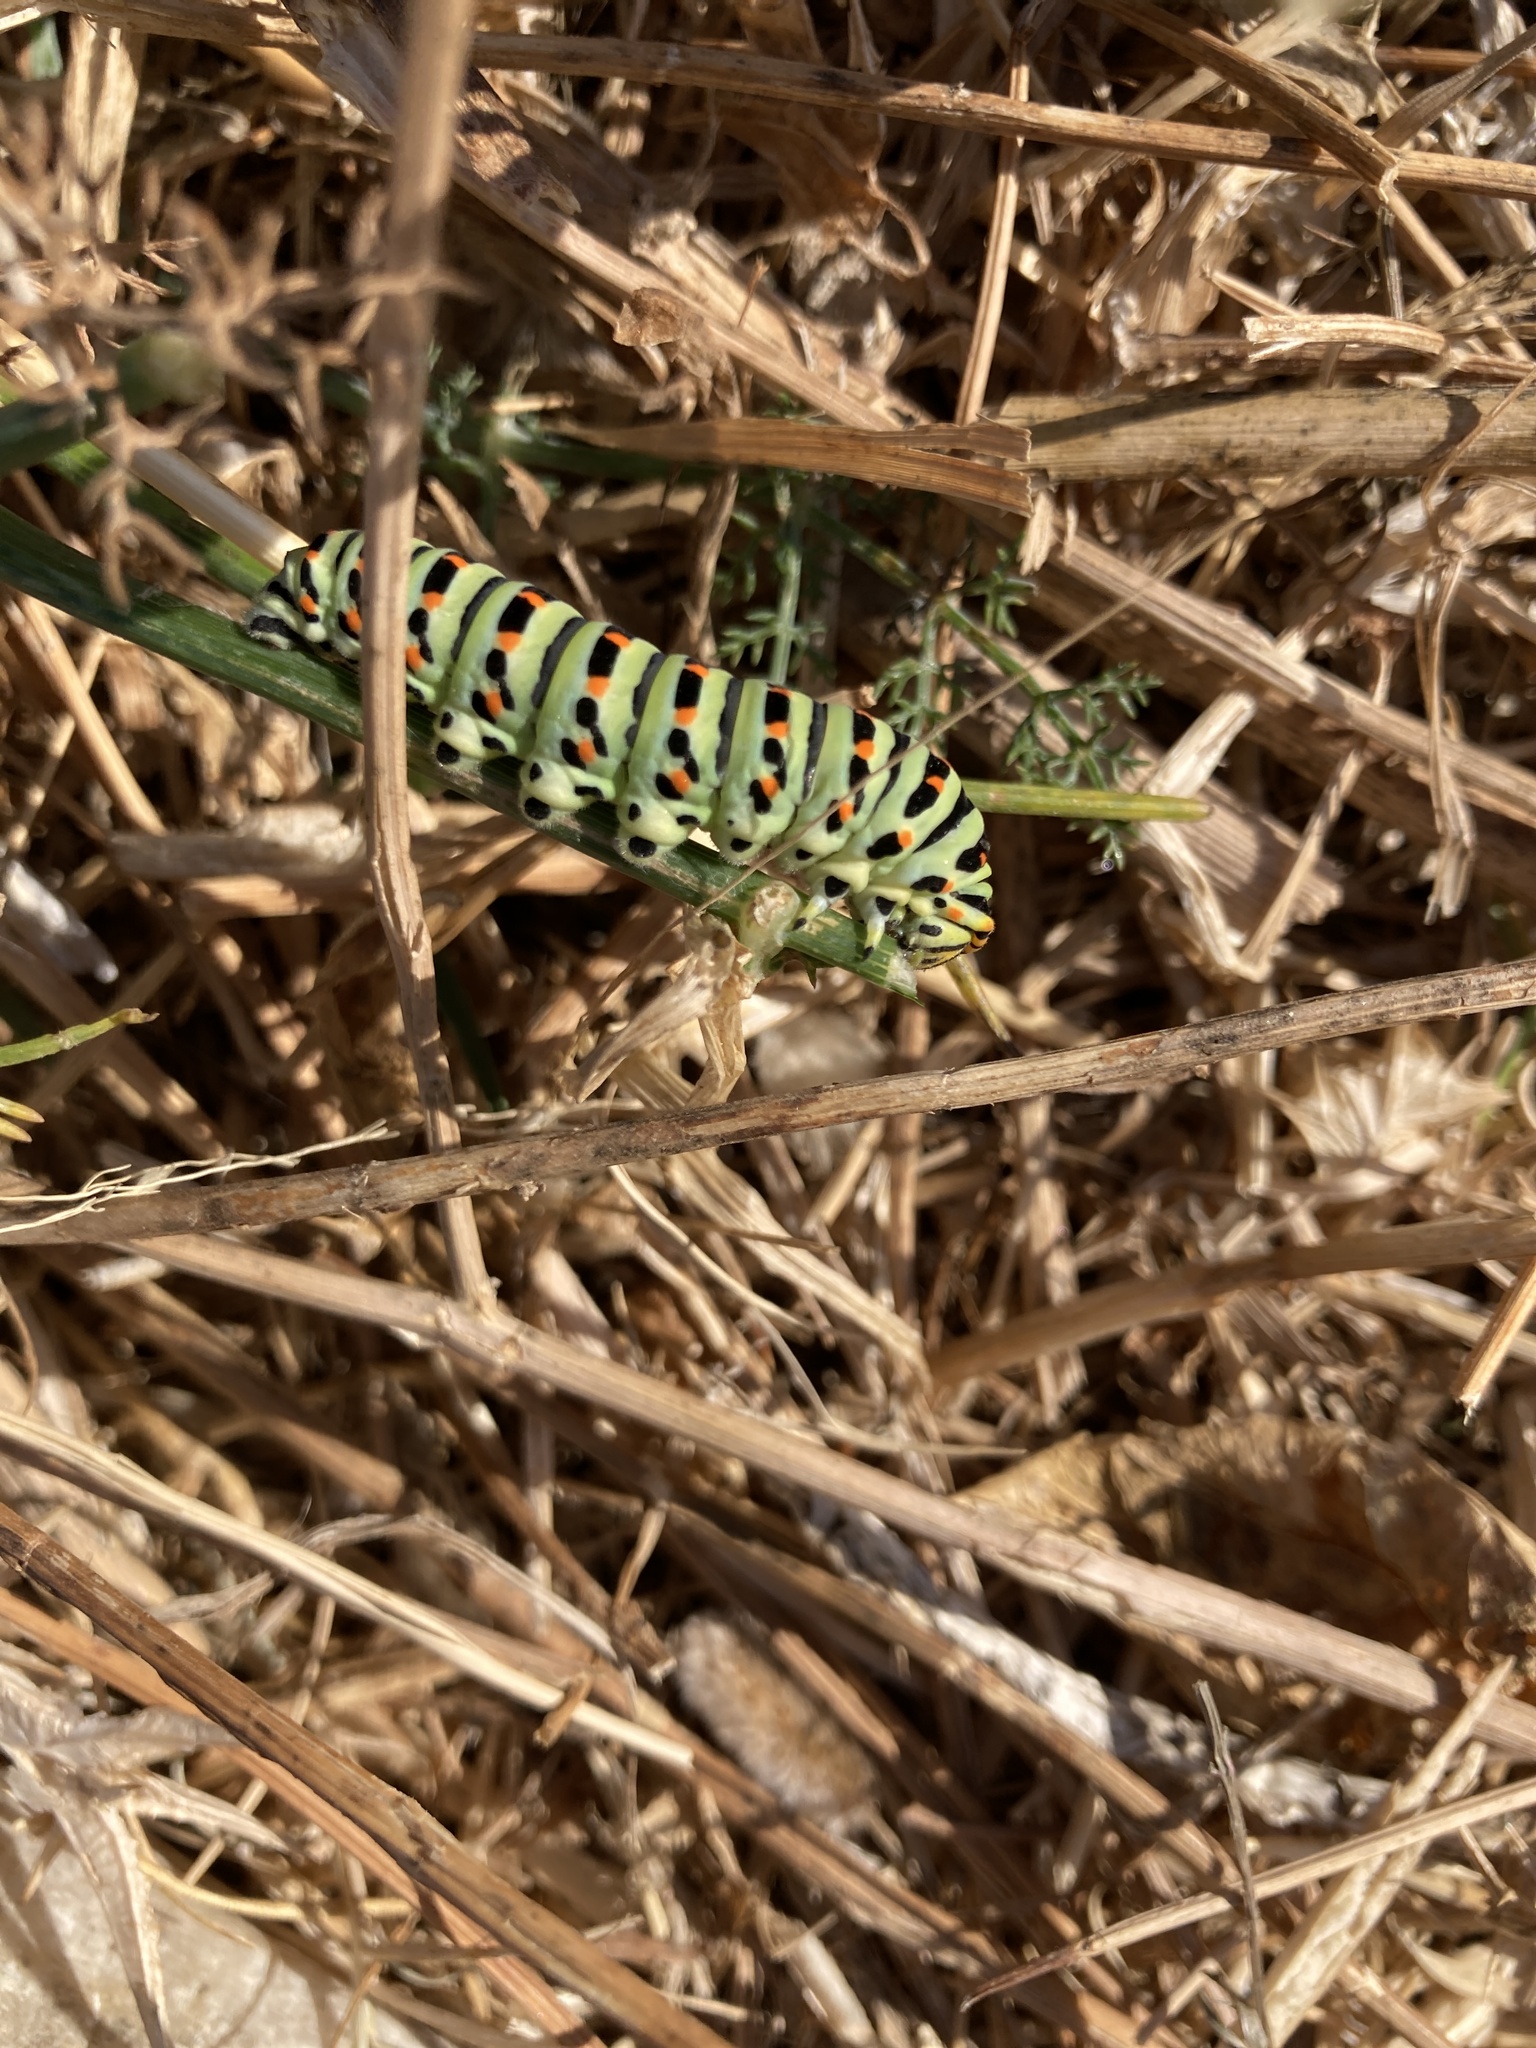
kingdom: Animalia
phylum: Arthropoda
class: Insecta
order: Lepidoptera
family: Papilionidae
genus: Papilio
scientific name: Papilio machaon
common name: Swallowtail
